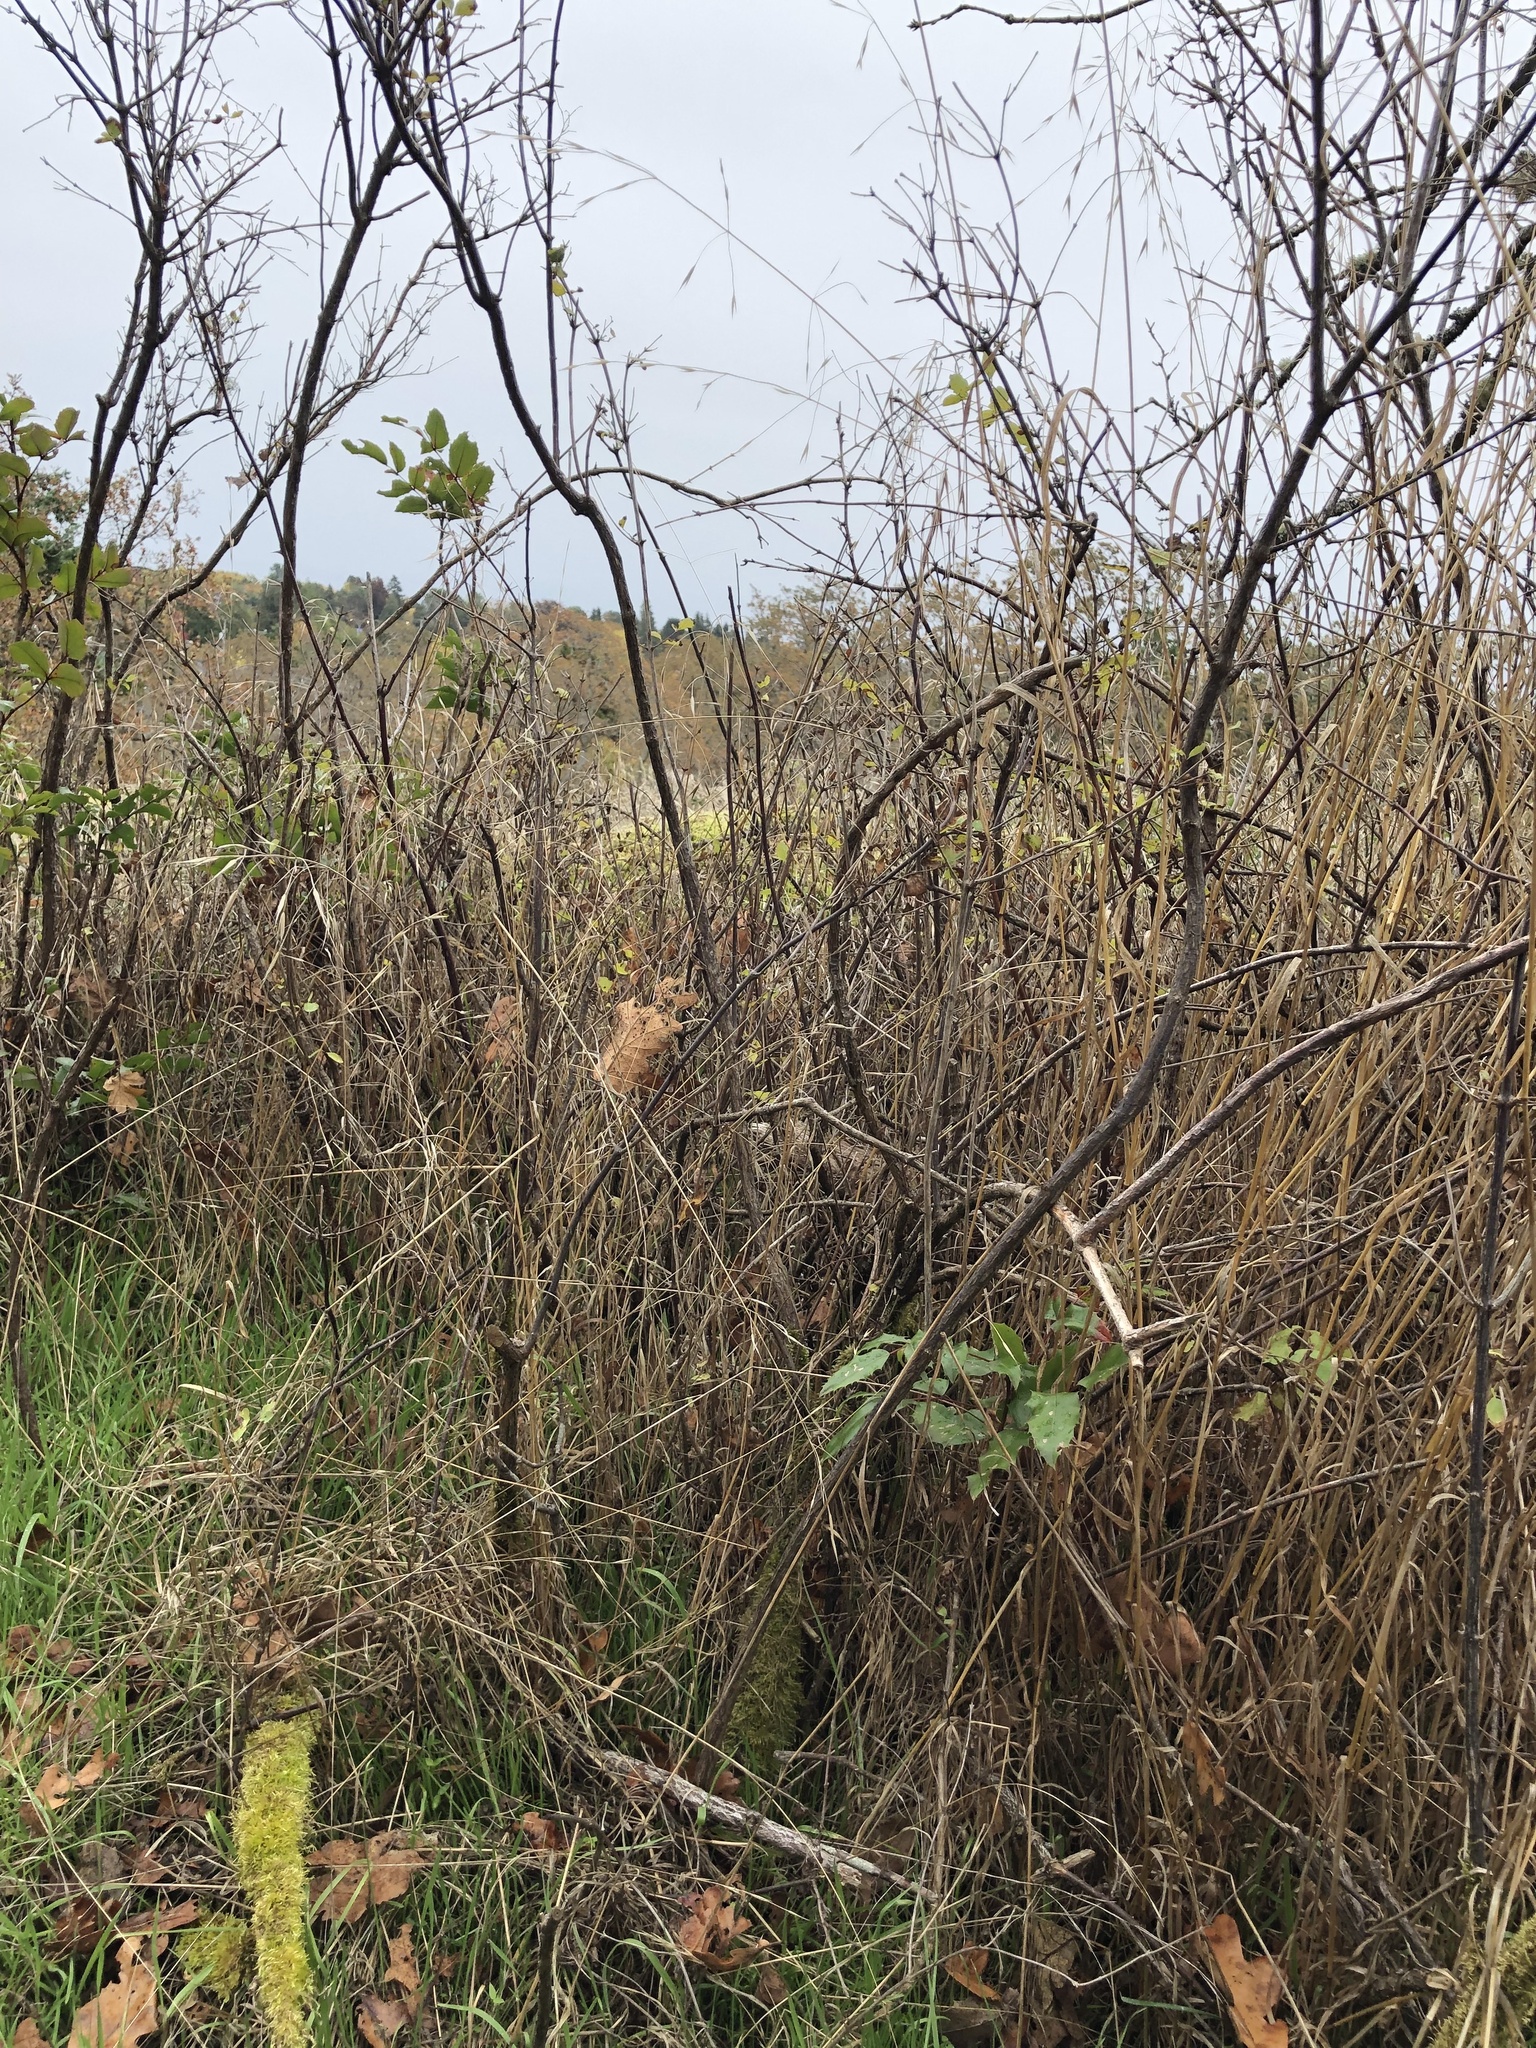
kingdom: Plantae
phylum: Tracheophyta
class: Magnoliopsida
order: Ranunculales
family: Berberidaceae
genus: Mahonia
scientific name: Mahonia aquifolium
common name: Oregon-grape
